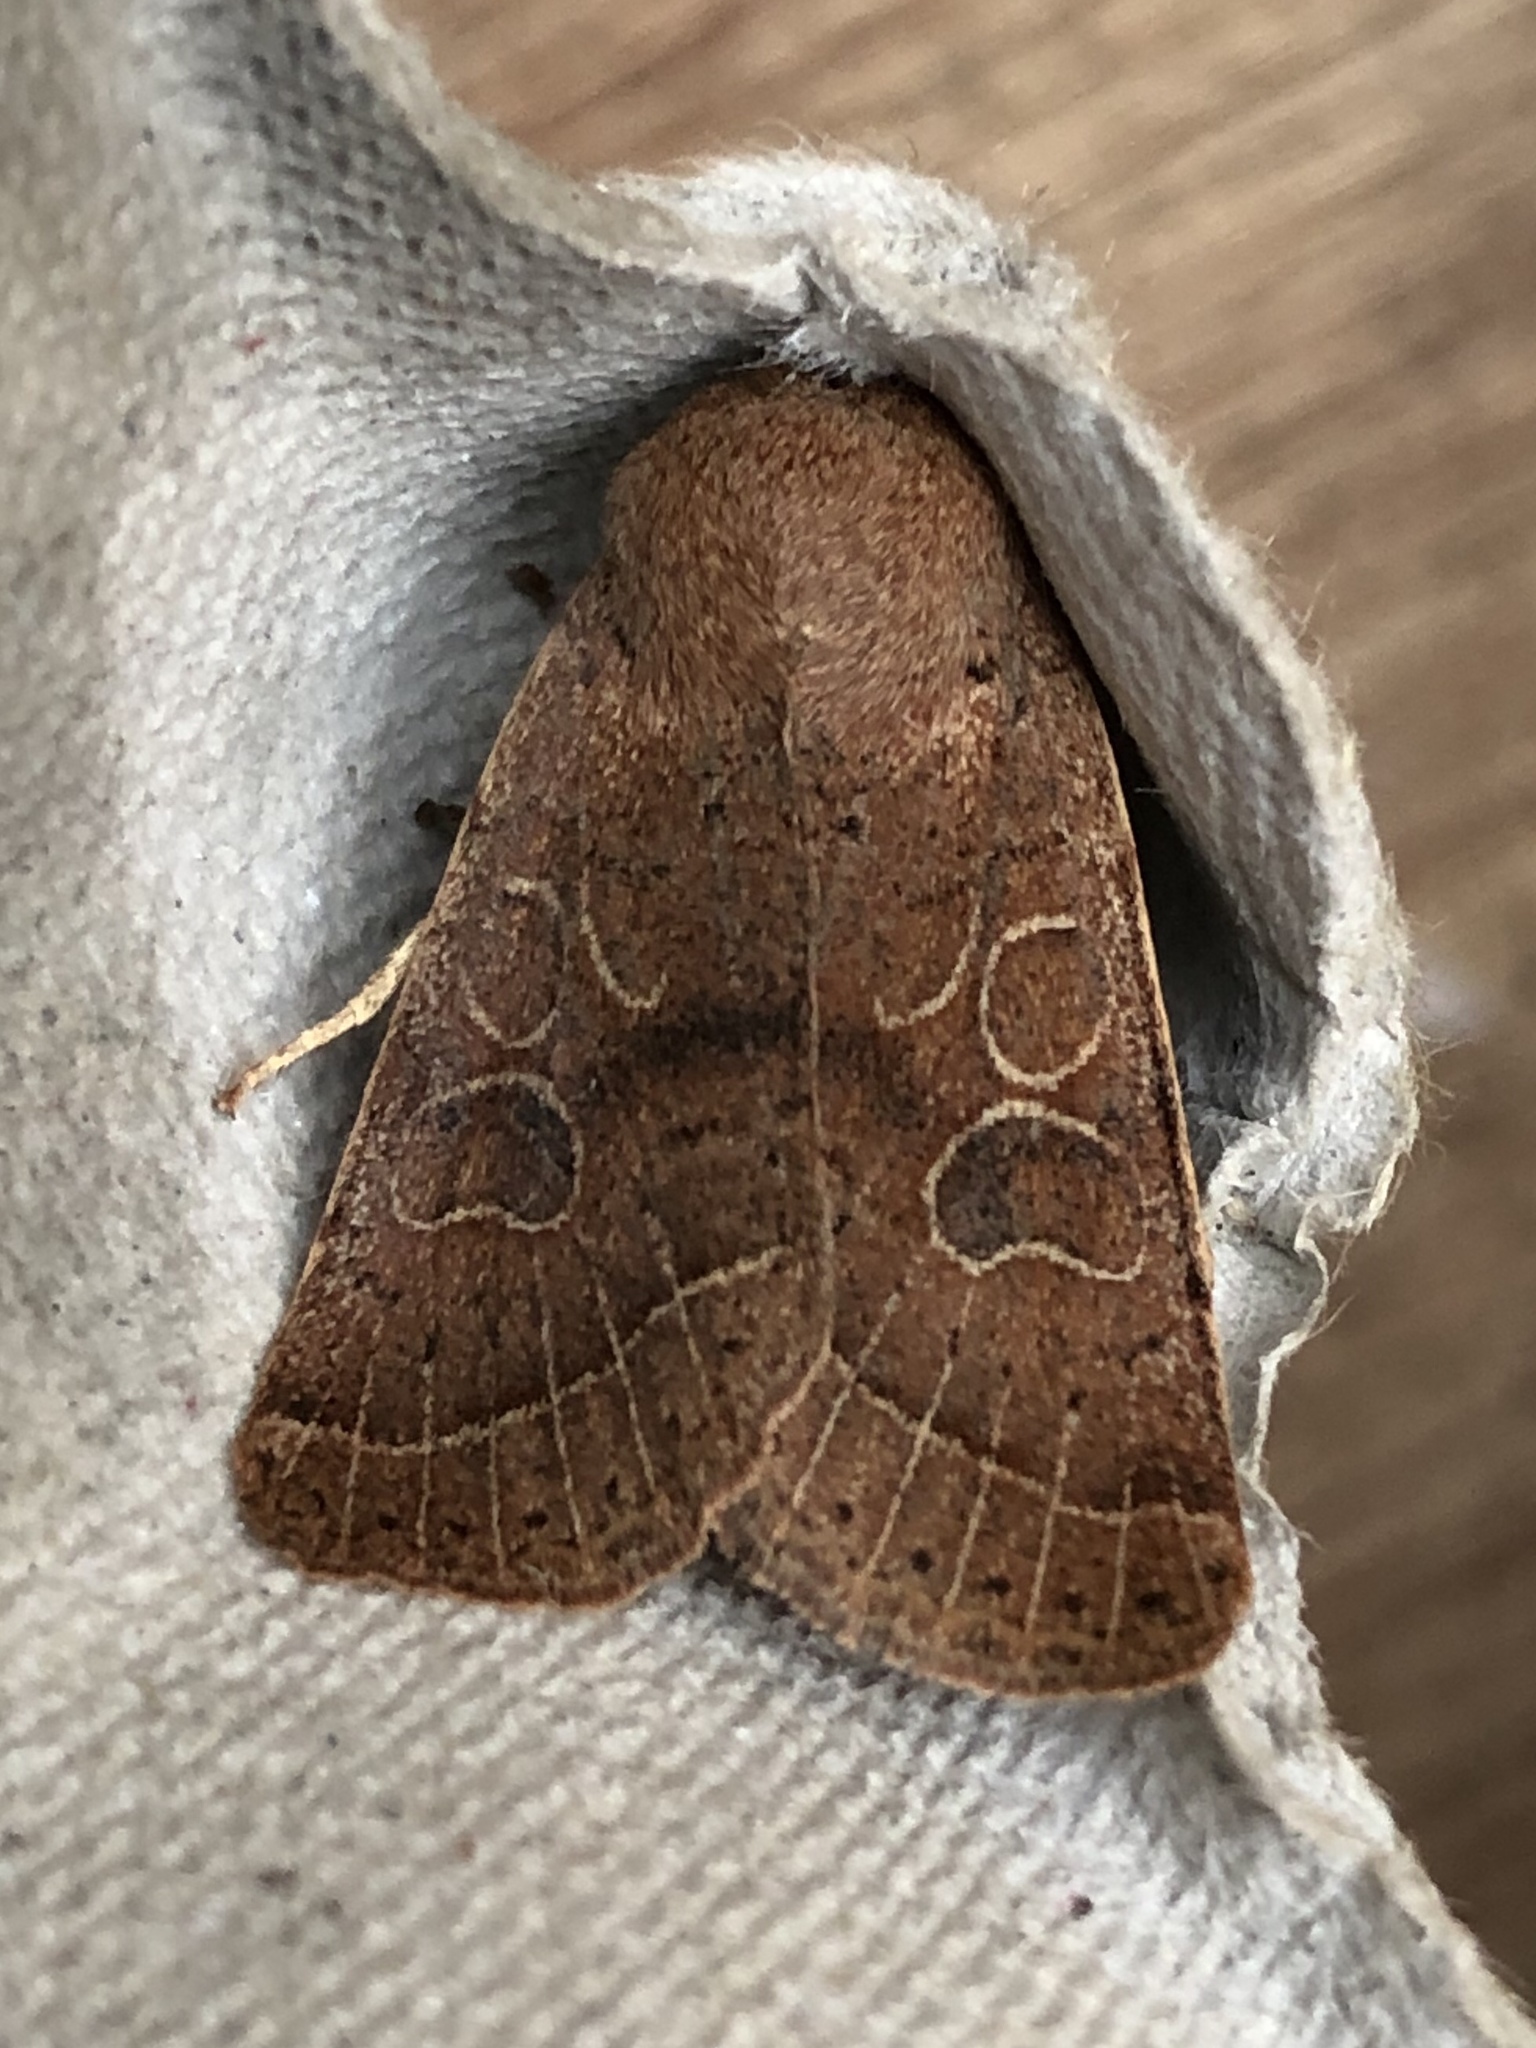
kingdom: Animalia
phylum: Arthropoda
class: Insecta
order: Lepidoptera
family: Noctuidae
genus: Orthosia
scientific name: Orthosia cerasi
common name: Common quaker
